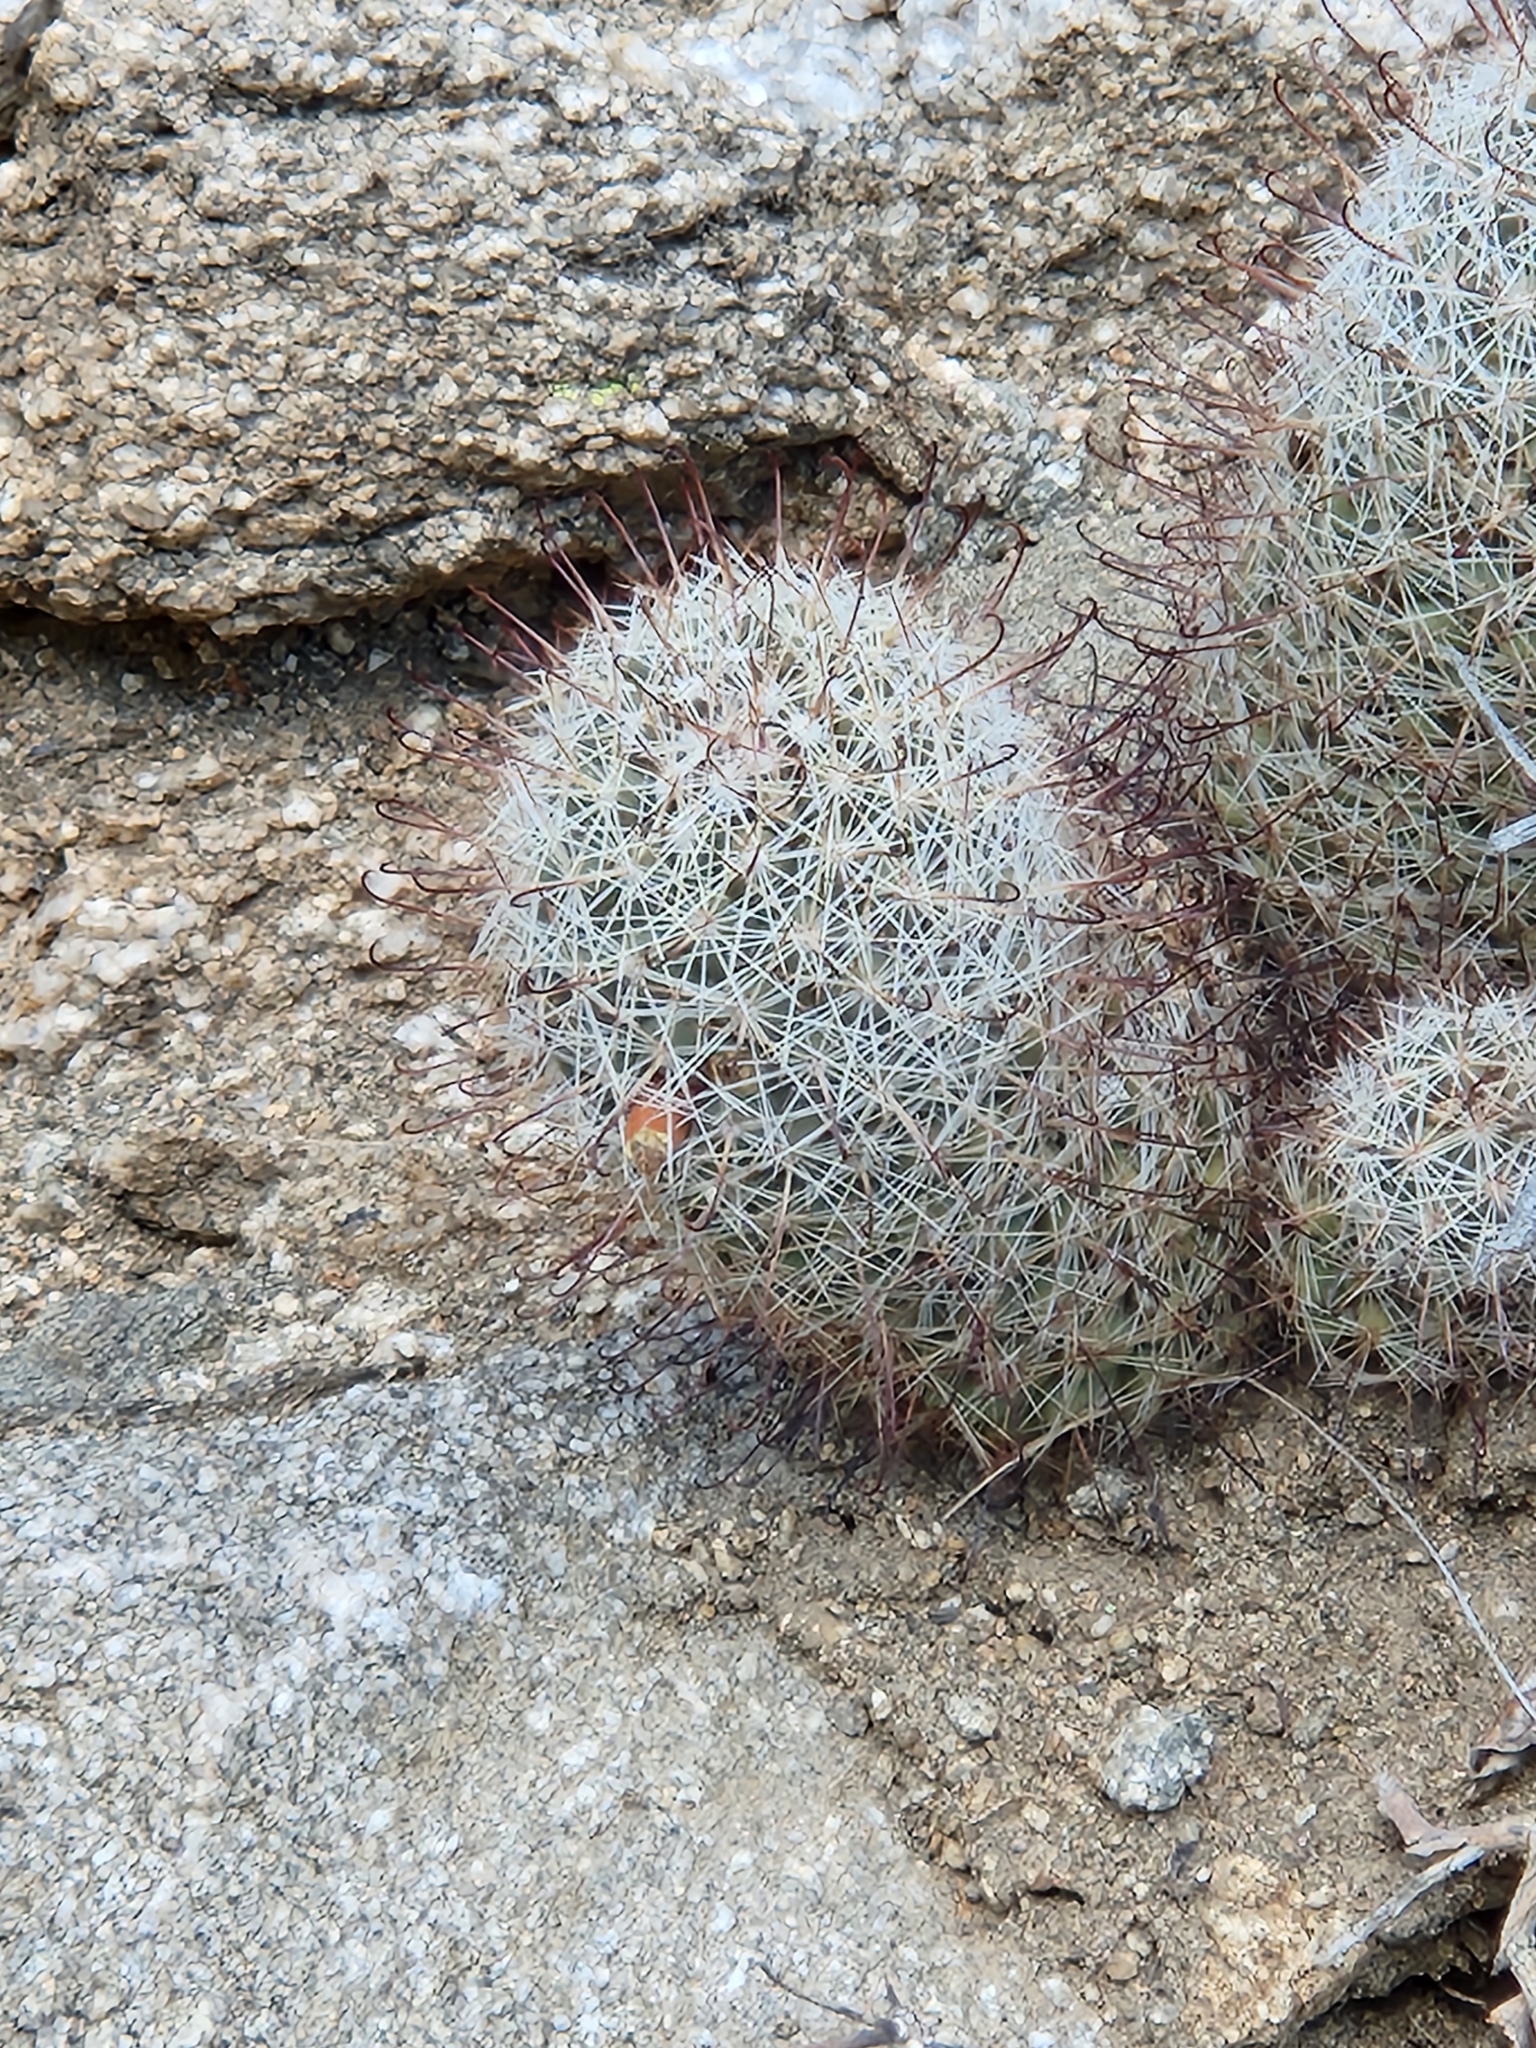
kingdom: Plantae
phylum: Tracheophyta
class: Magnoliopsida
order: Caryophyllales
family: Cactaceae
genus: Cochemiea
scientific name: Cochemiea dioica
